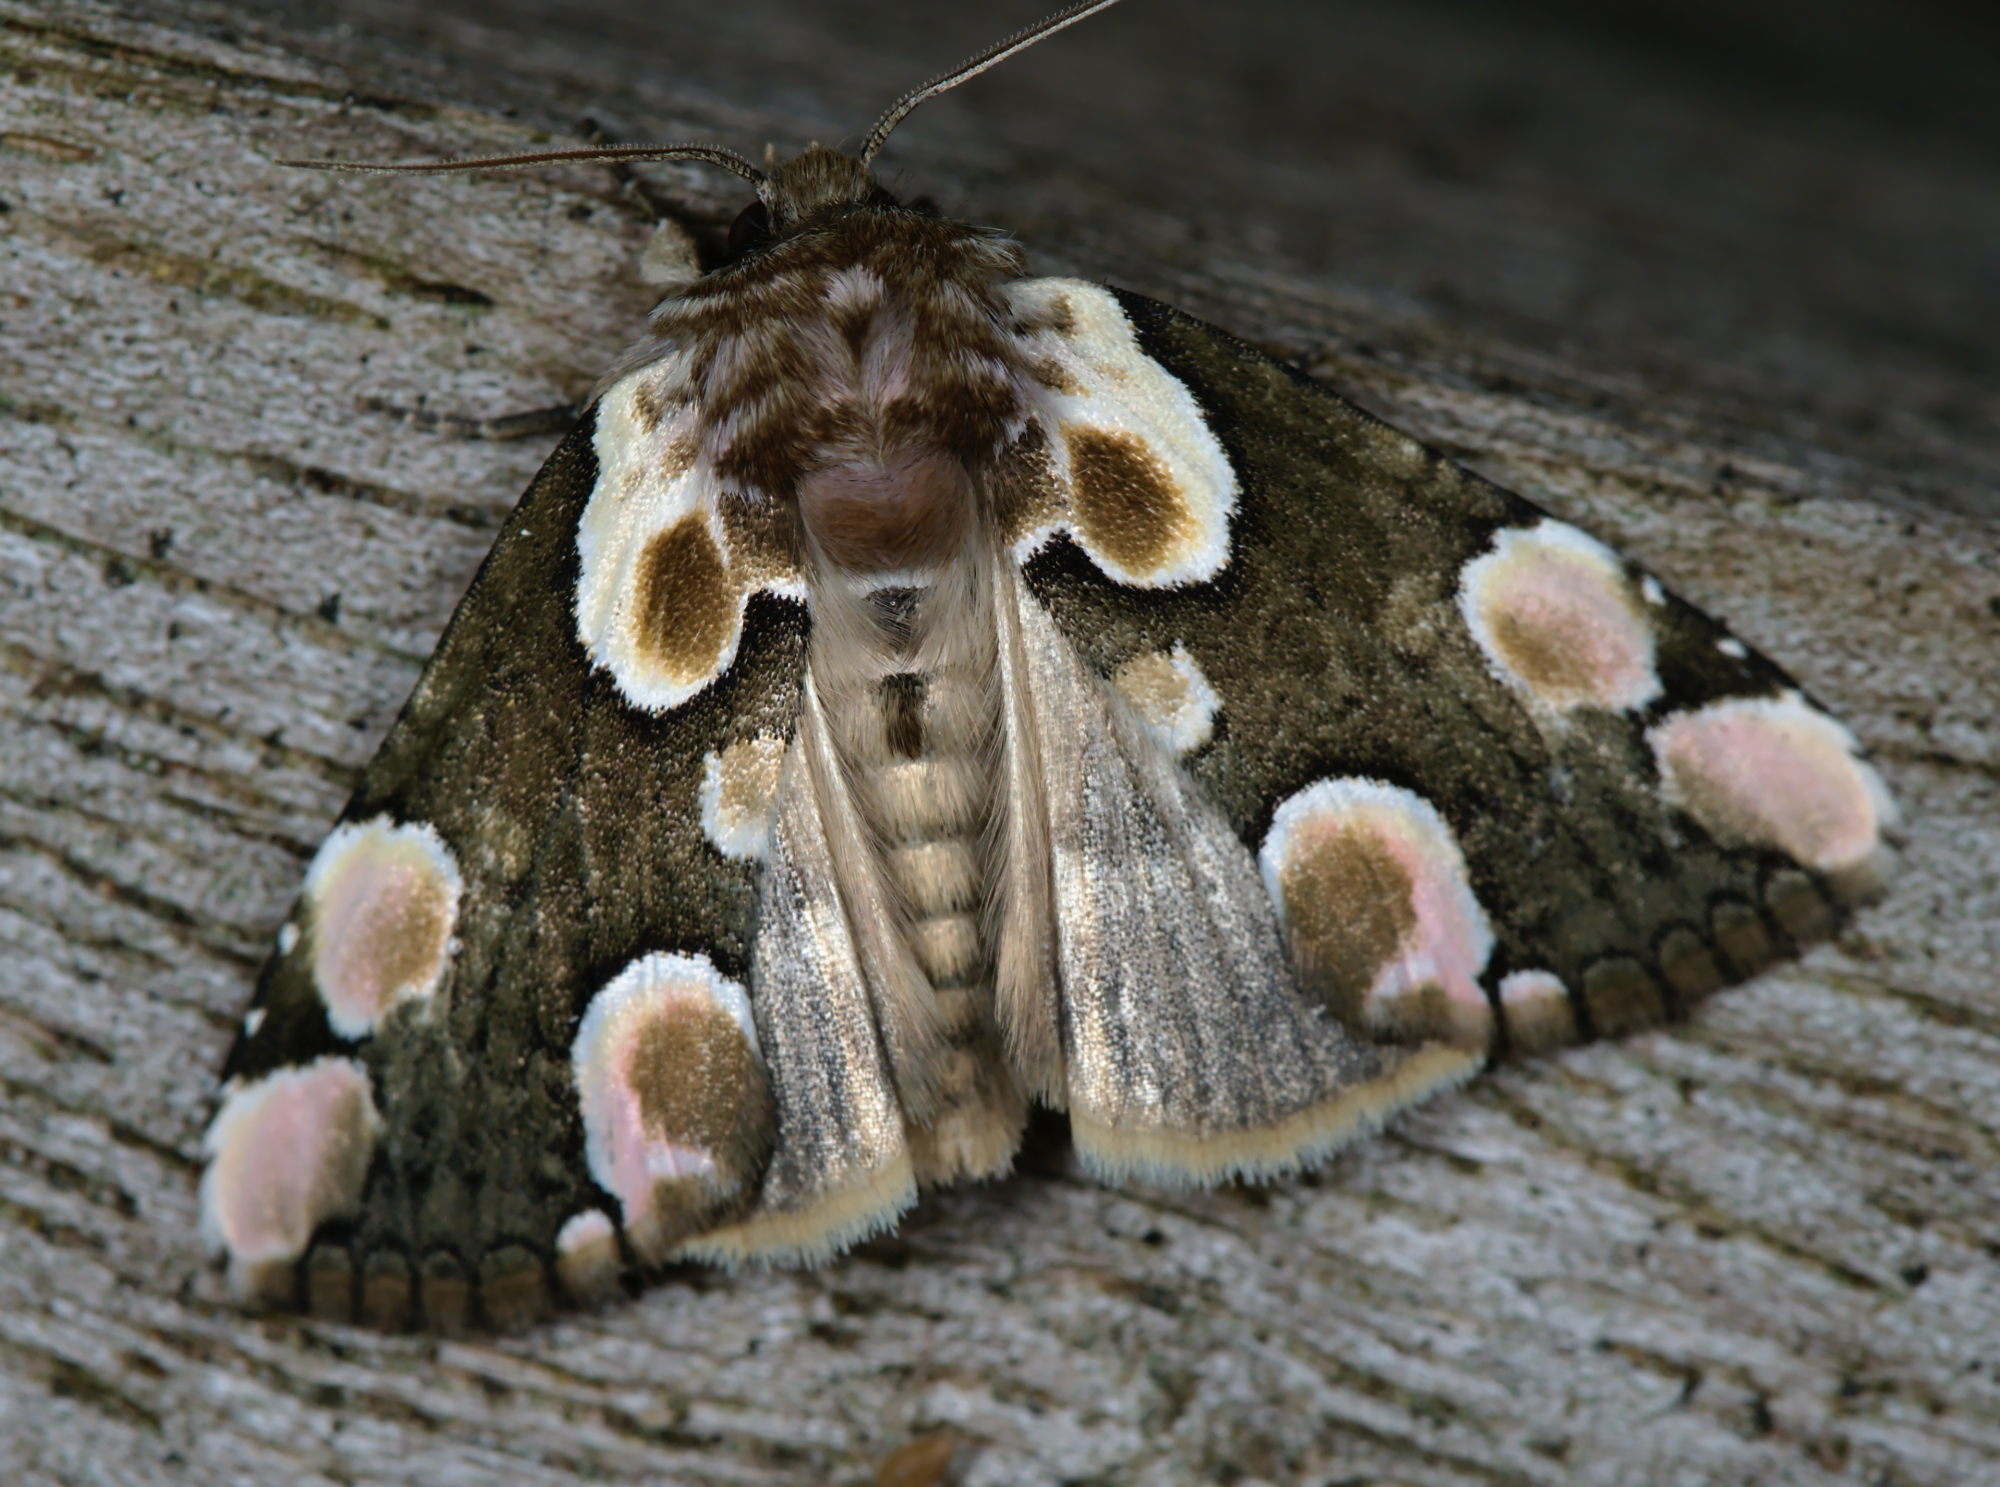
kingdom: Animalia
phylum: Arthropoda
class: Insecta
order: Lepidoptera
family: Drepanidae
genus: Thyatira
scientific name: Thyatira batis
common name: Peach blossom
